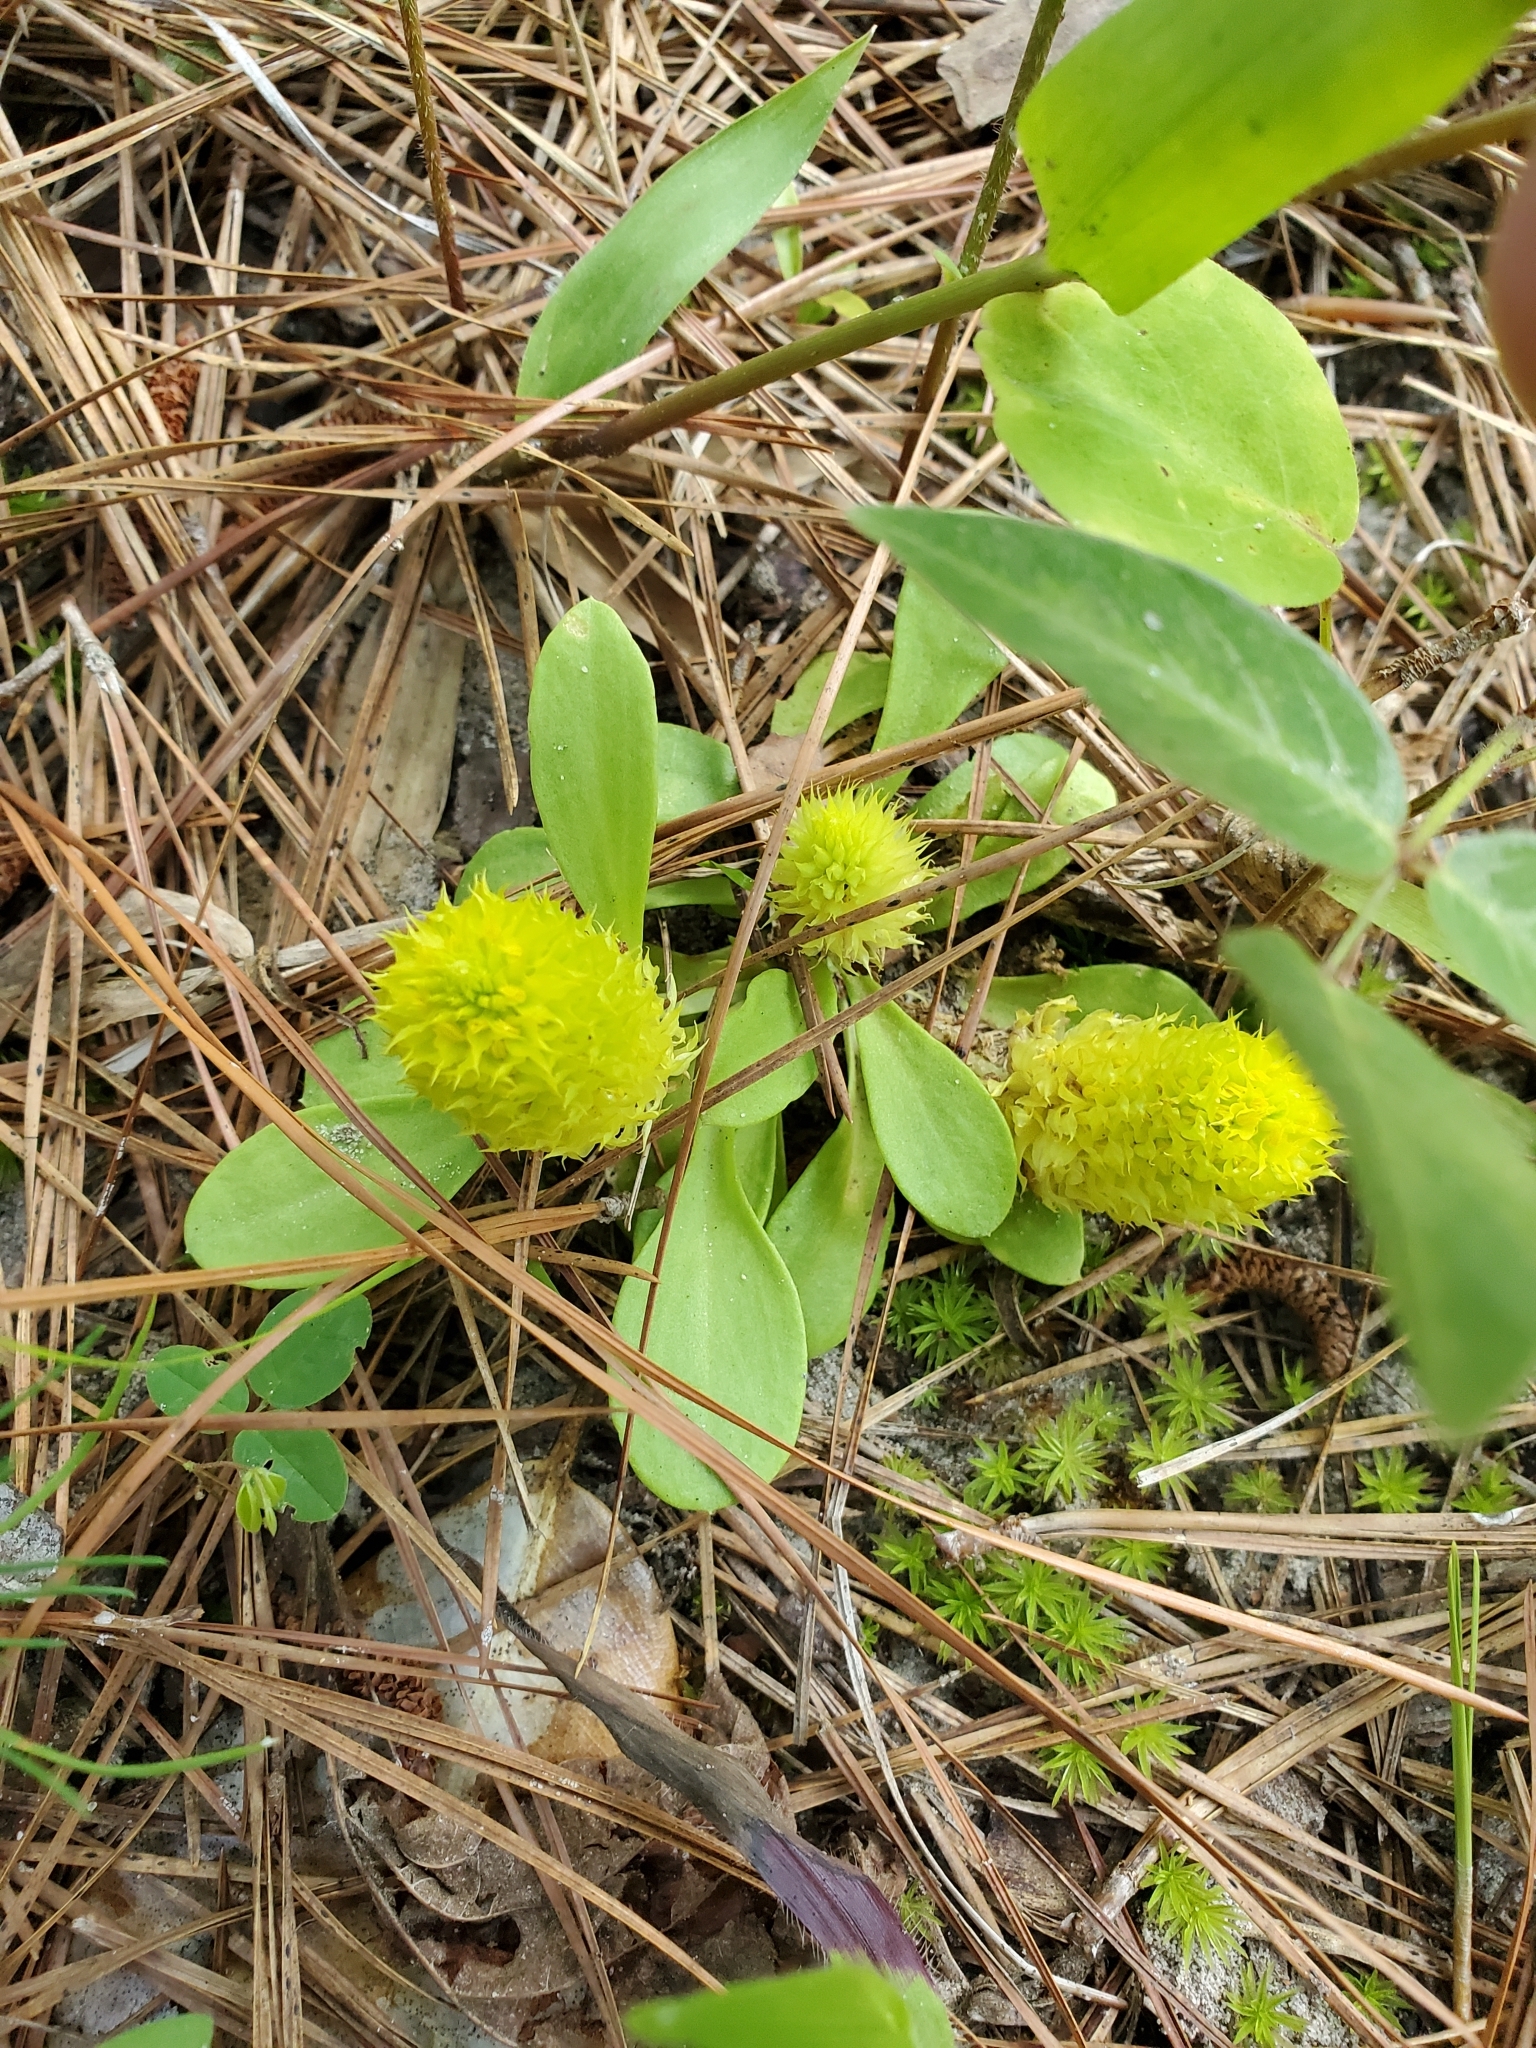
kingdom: Plantae
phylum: Tracheophyta
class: Magnoliopsida
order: Fabales
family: Polygalaceae
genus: Polygala
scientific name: Polygala nana
